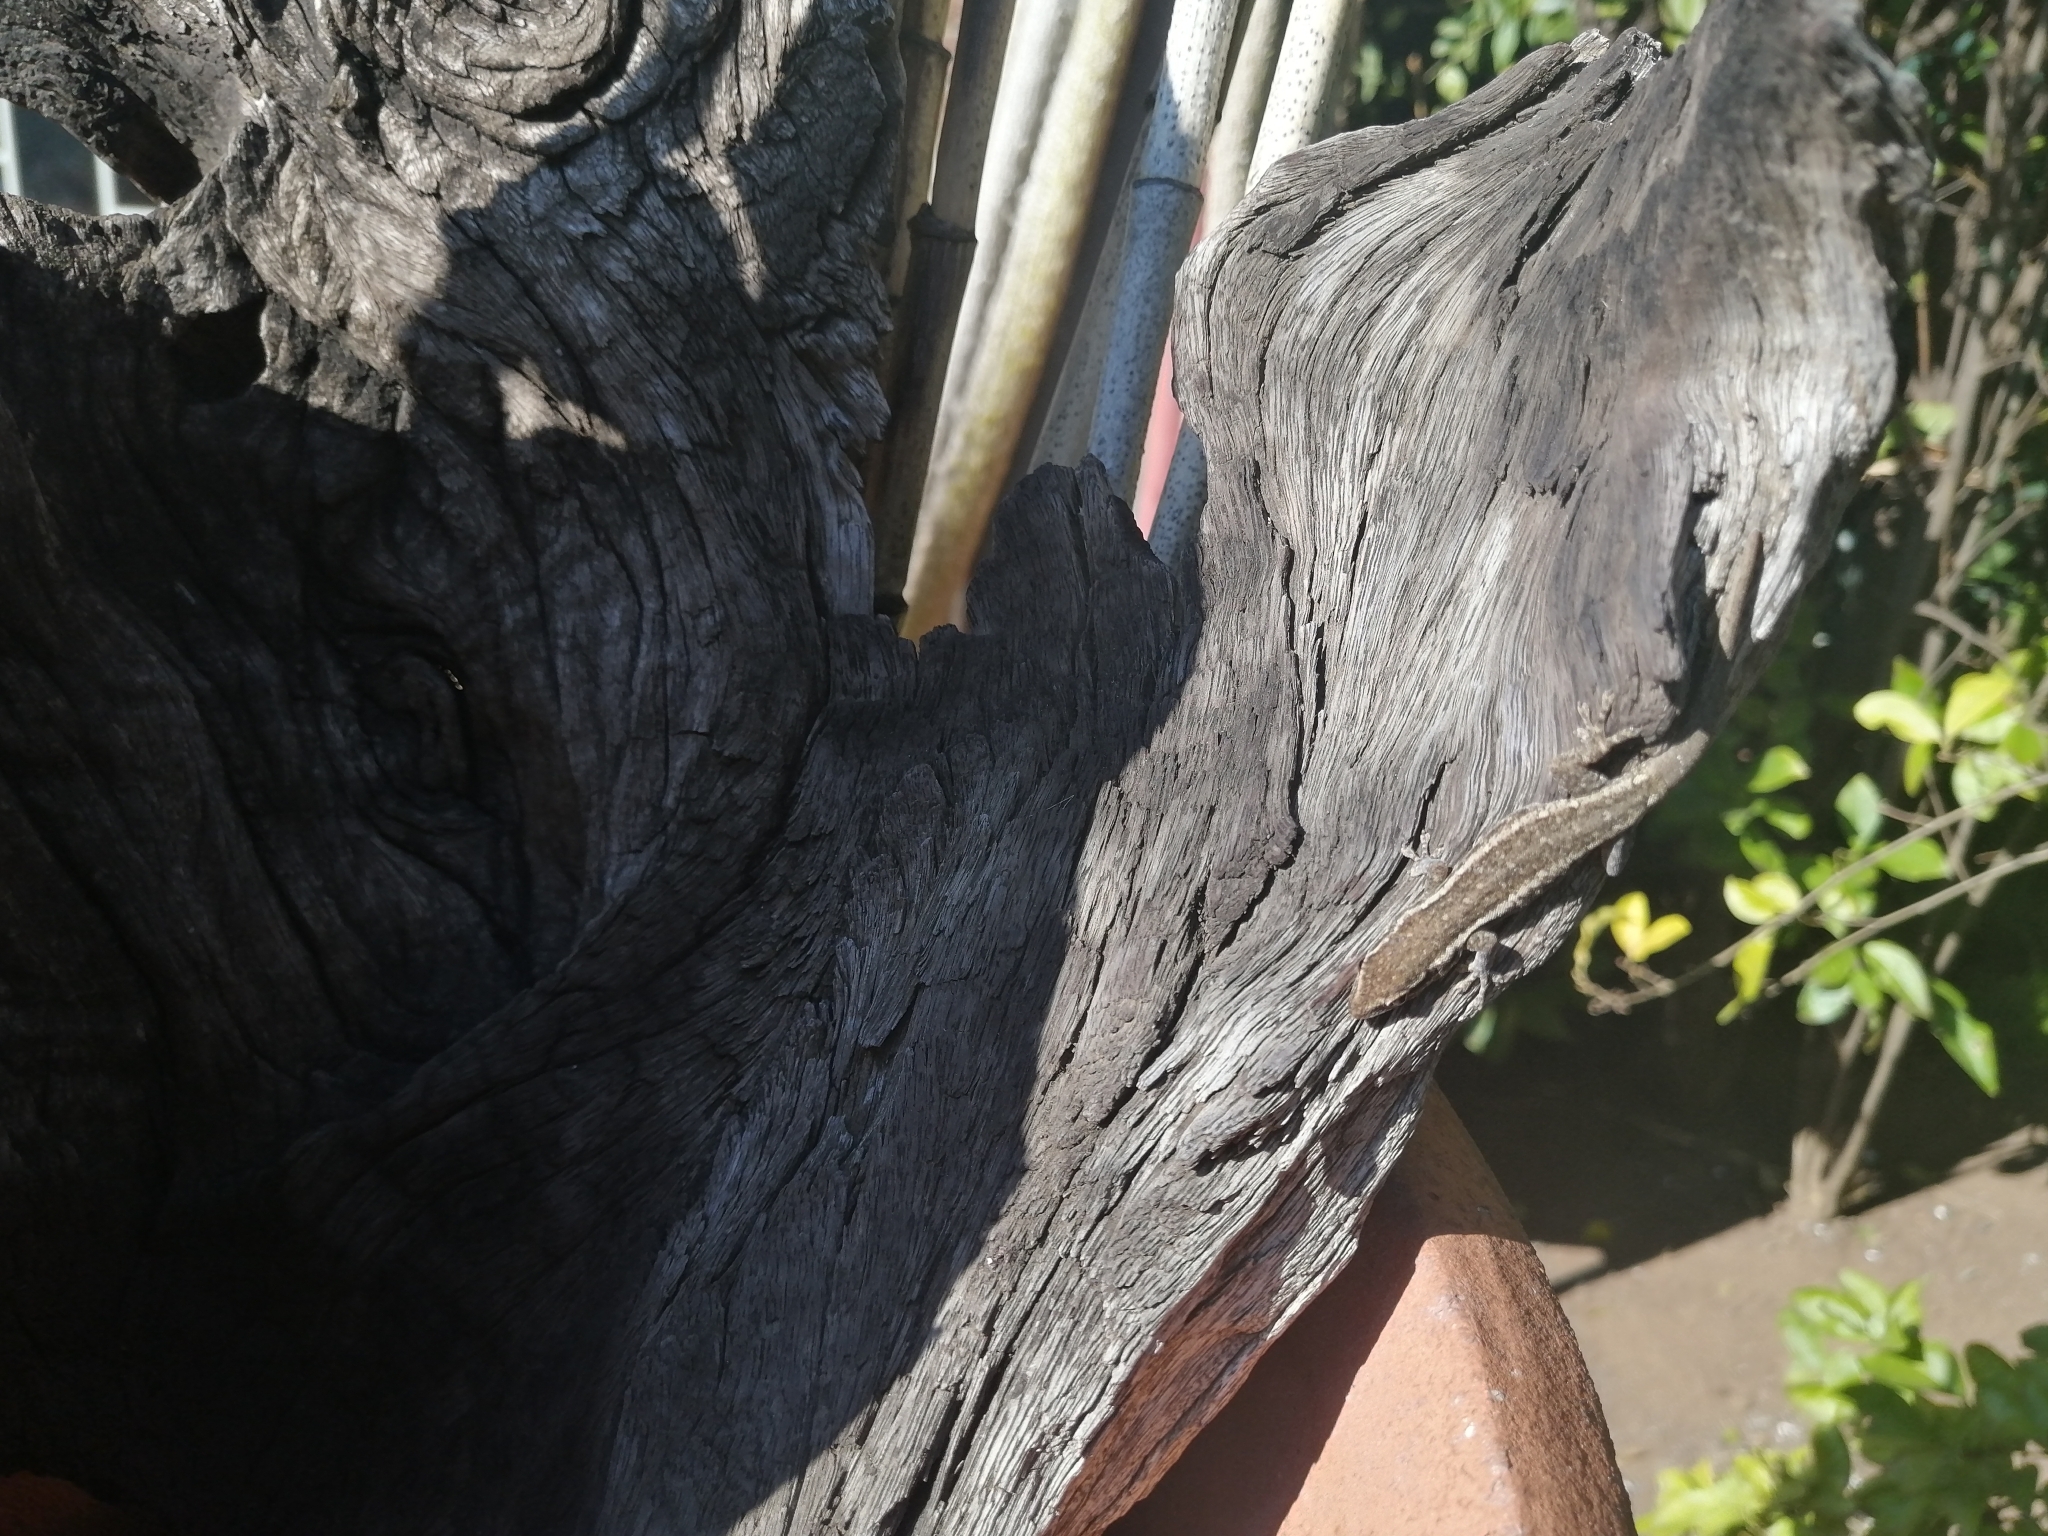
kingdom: Animalia
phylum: Chordata
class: Squamata
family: Gekkonidae
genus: Lygodactylus
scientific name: Lygodactylus capensis
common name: Cape dwarf gecko
